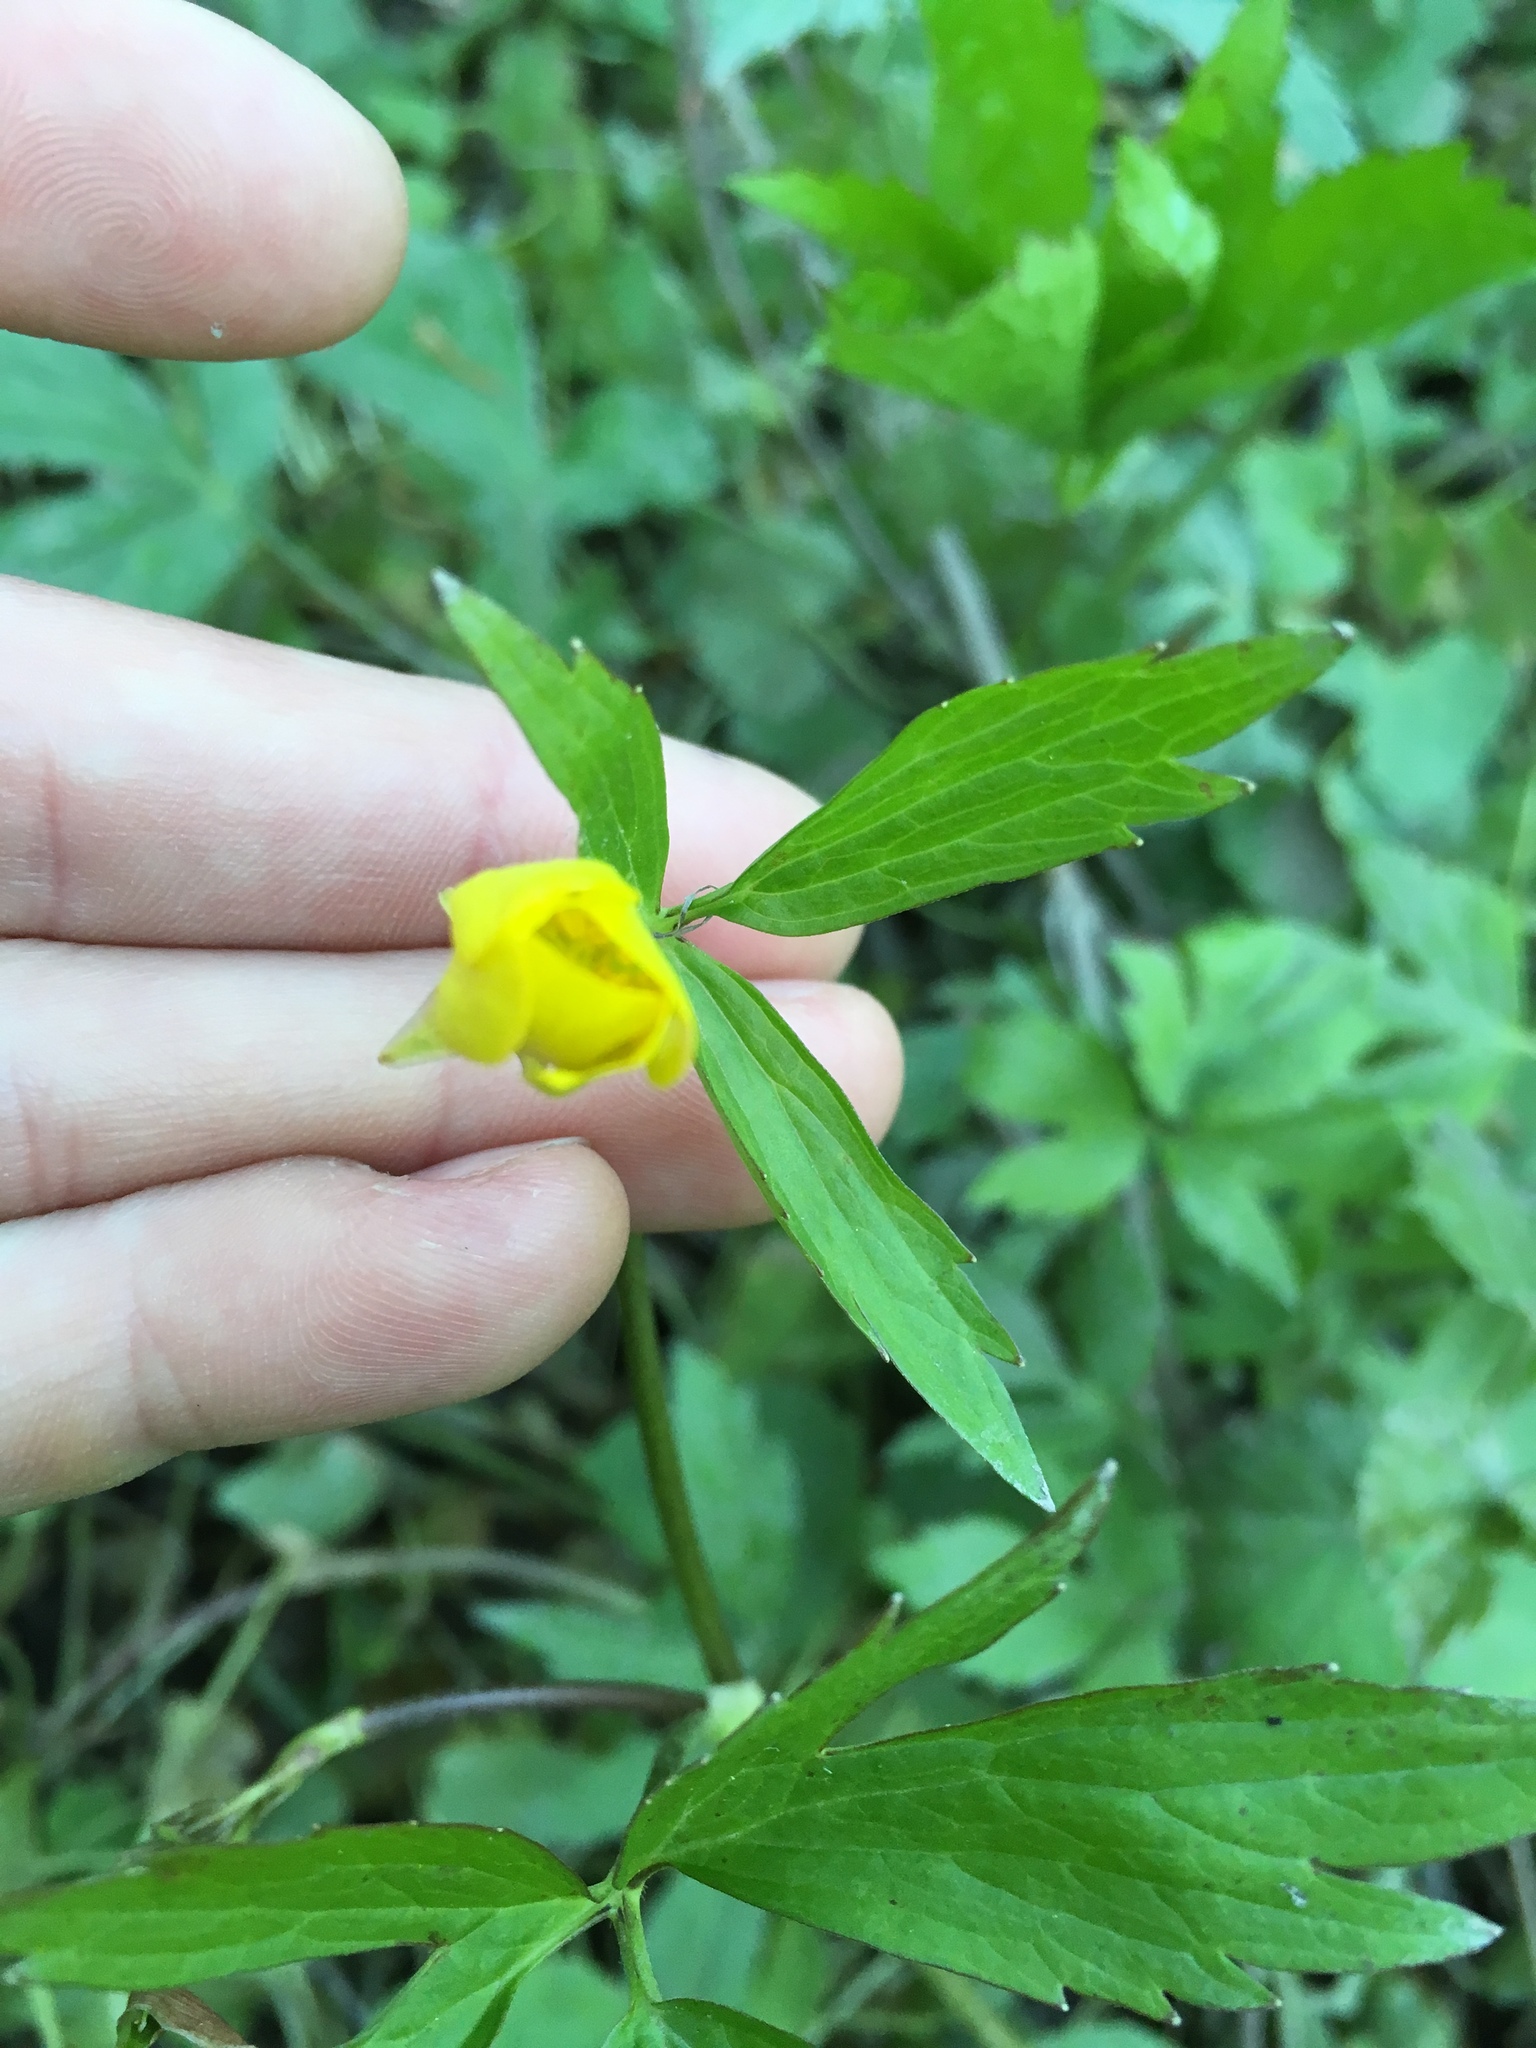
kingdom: Plantae
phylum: Tracheophyta
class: Magnoliopsida
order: Ranunculales
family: Ranunculaceae
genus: Ranunculus
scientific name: Ranunculus hispidus
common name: Bristly buttercup
